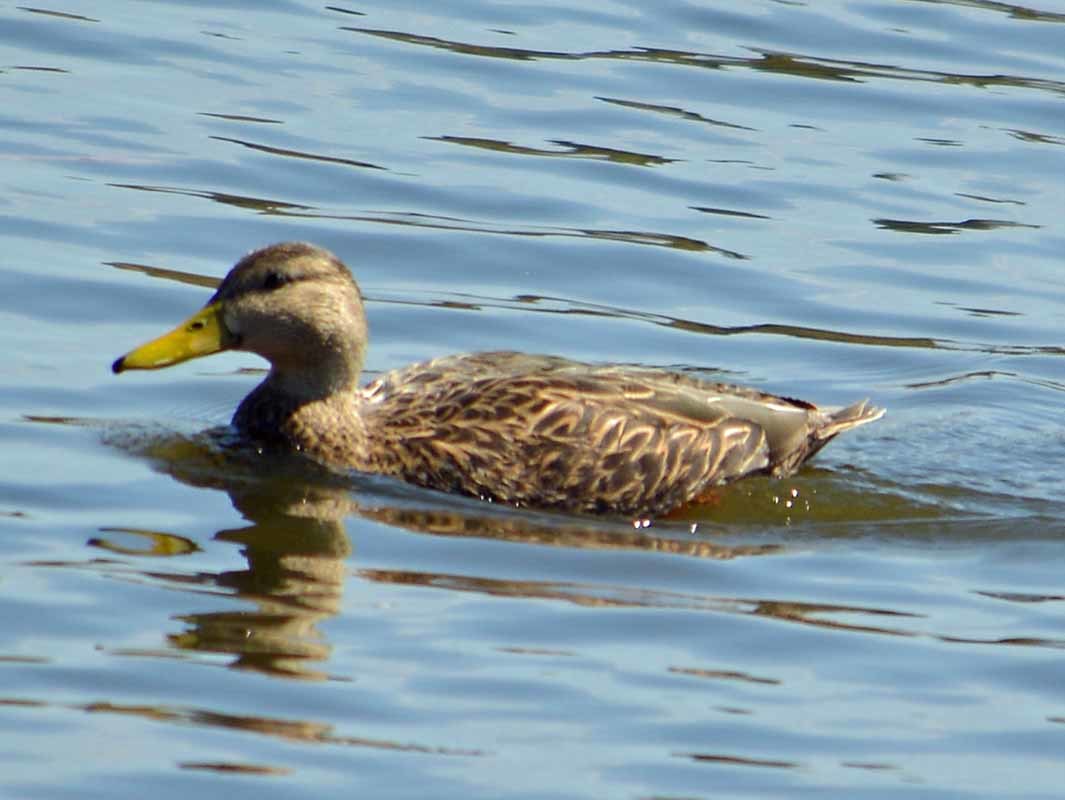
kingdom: Animalia
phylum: Chordata
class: Aves
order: Anseriformes
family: Anatidae
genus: Anas
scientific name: Anas diazi
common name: Mexican duck
